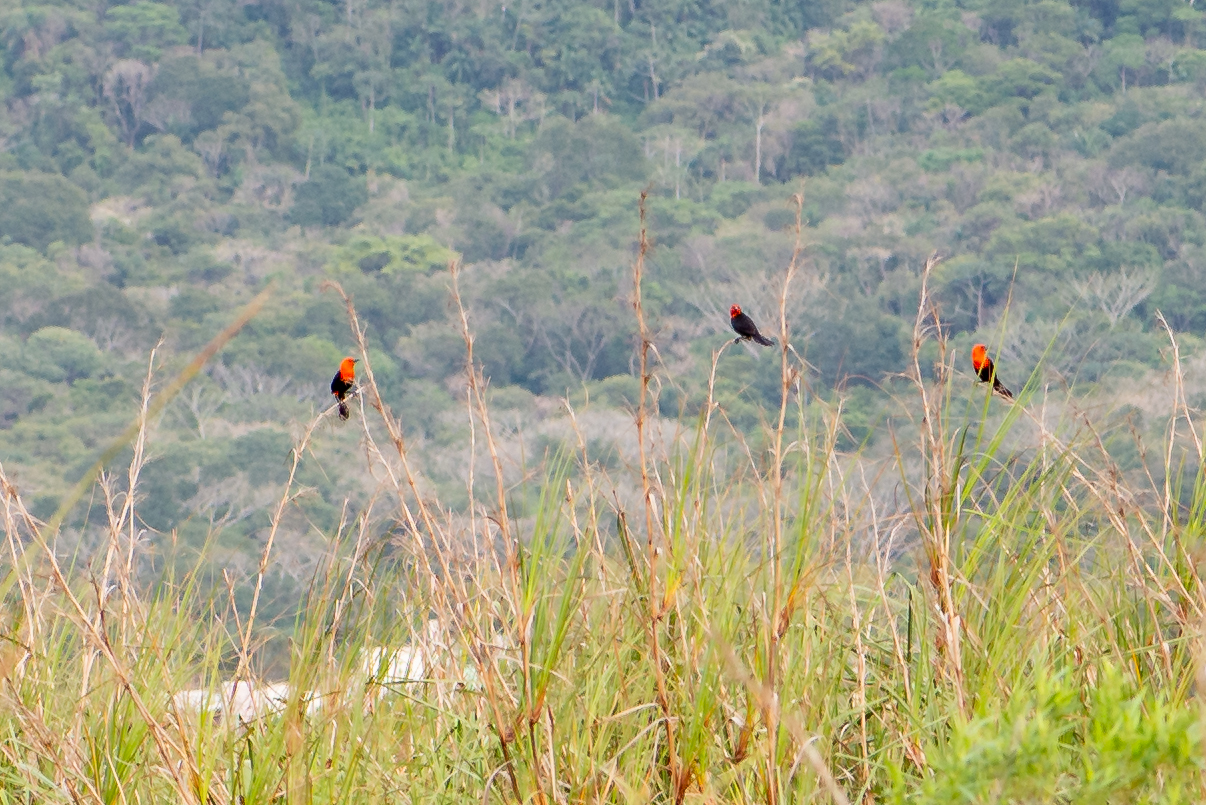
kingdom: Animalia
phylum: Chordata
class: Aves
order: Passeriformes
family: Icteridae
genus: Amblyramphus
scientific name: Amblyramphus holosericeus
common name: Scarlet-headed blackbird
